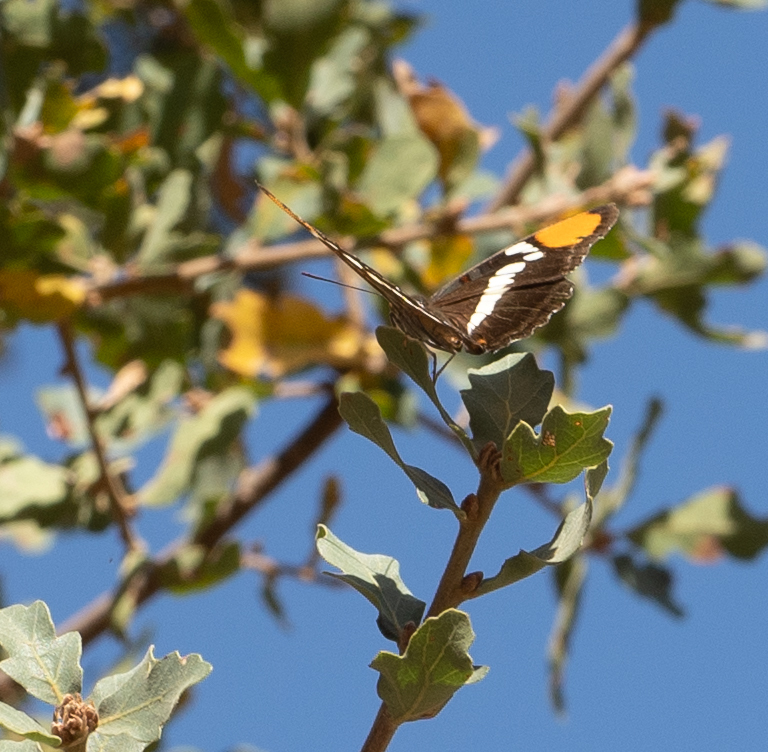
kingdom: Animalia
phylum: Arthropoda
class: Insecta
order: Lepidoptera
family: Nymphalidae
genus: Limenitis
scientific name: Limenitis bredowii
